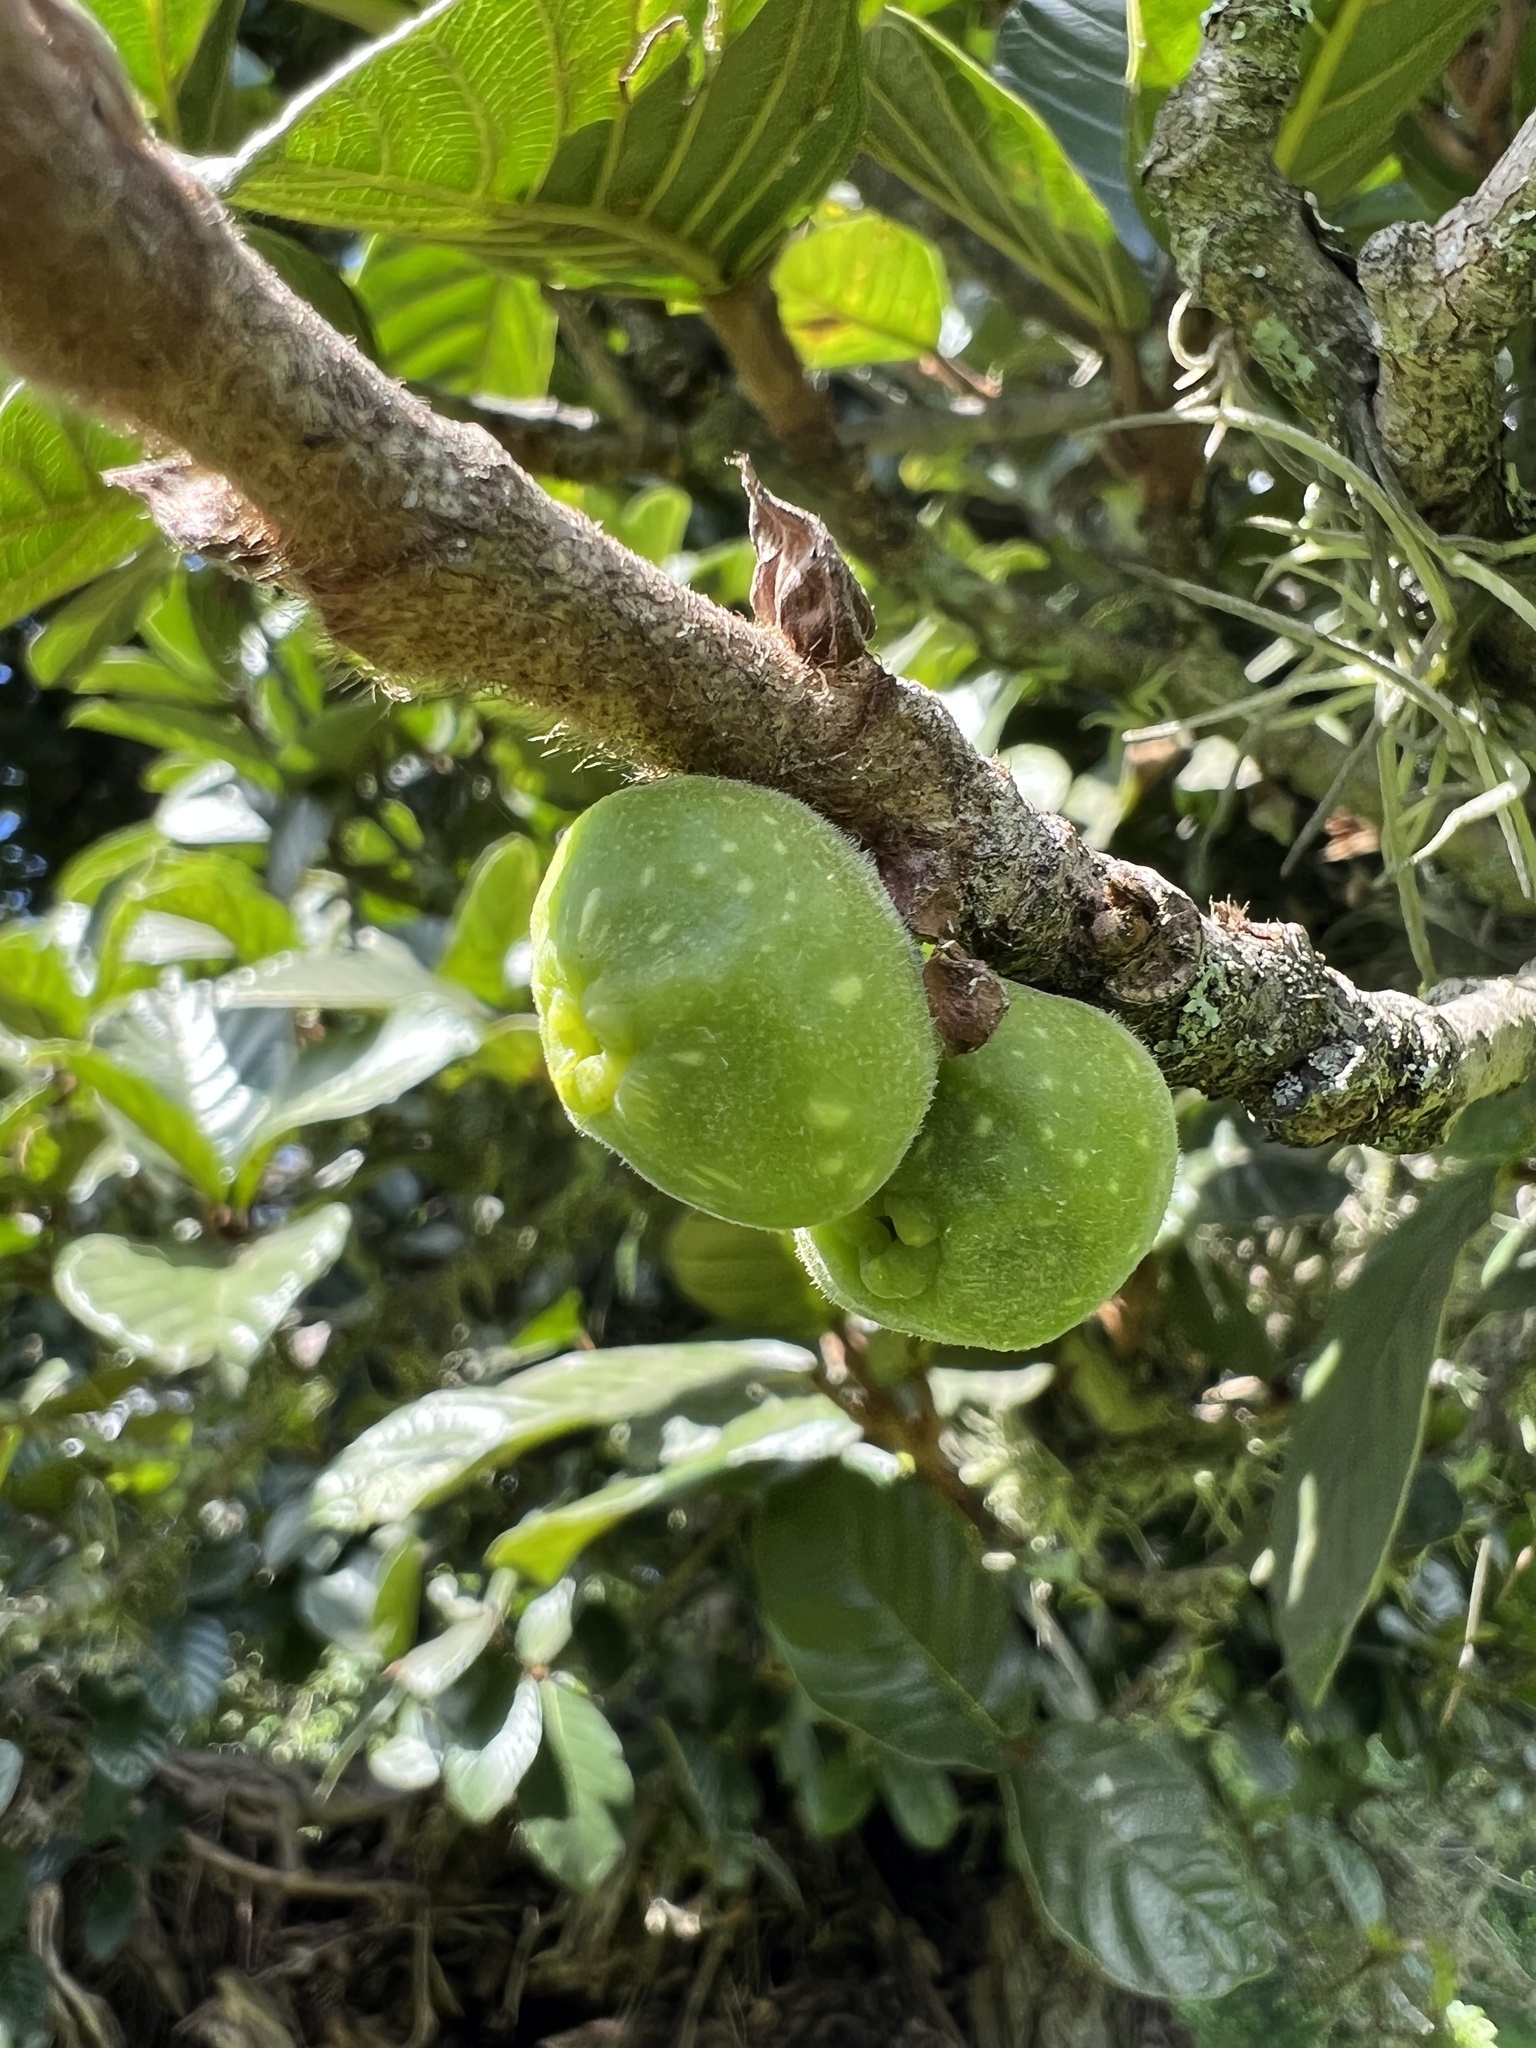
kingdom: Plantae
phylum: Tracheophyta
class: Magnoliopsida
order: Rosales
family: Moraceae
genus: Ficus
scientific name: Ficus velutina
